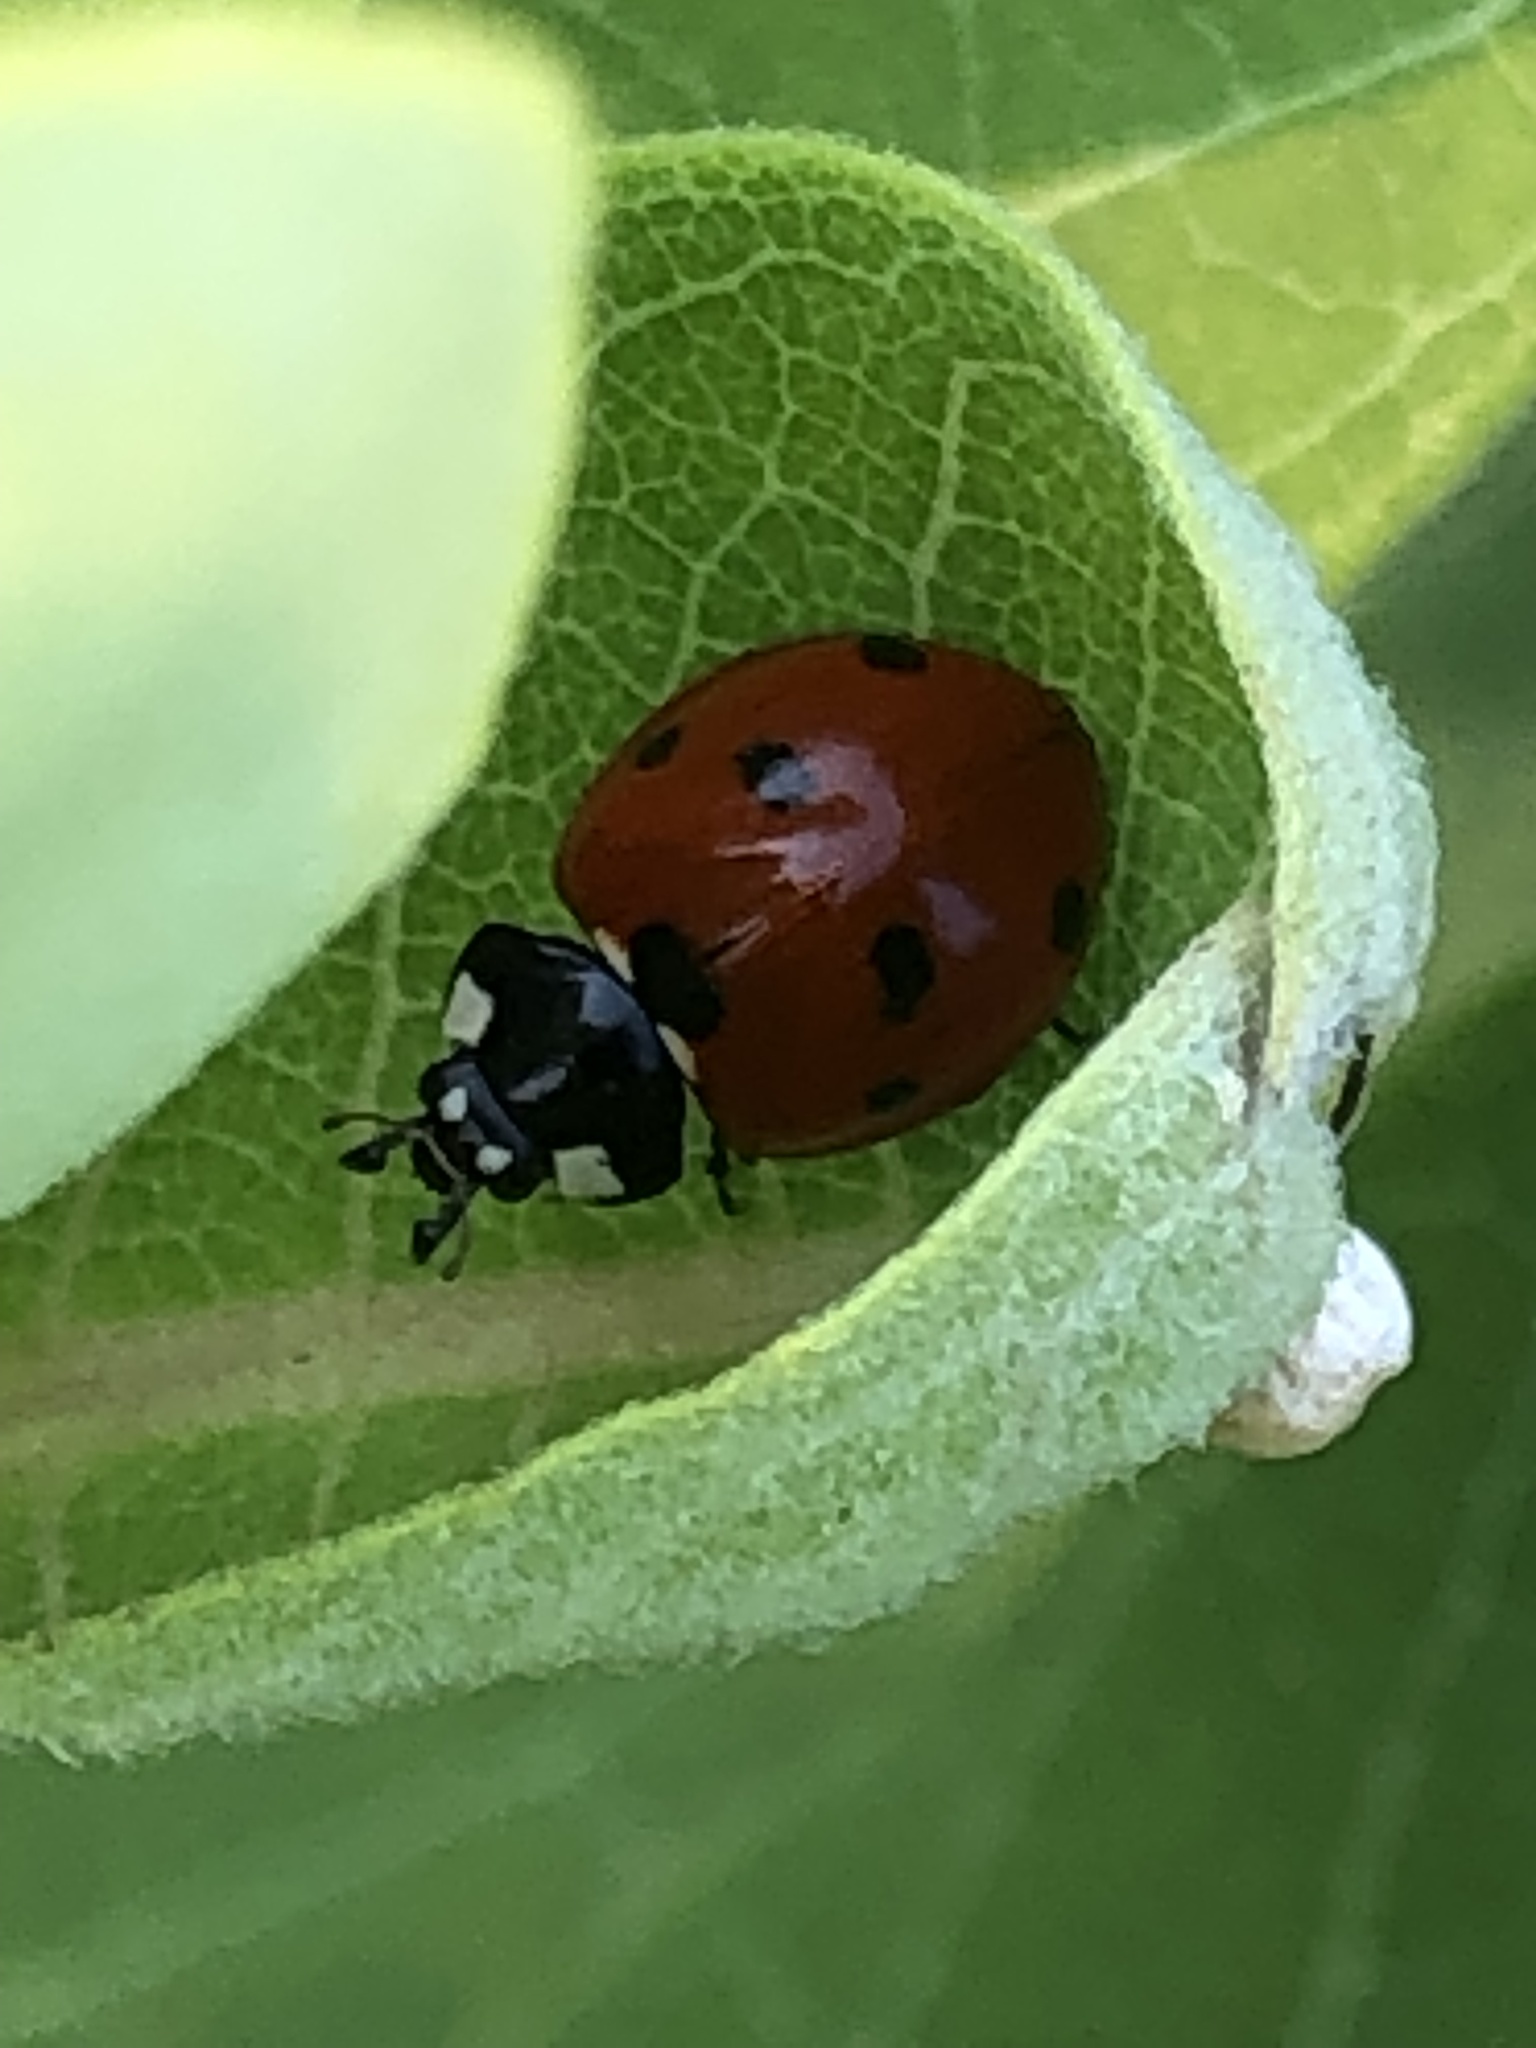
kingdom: Animalia
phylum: Arthropoda
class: Insecta
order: Coleoptera
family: Coccinellidae
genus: Coccinella
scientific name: Coccinella septempunctata
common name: Sevenspotted lady beetle
